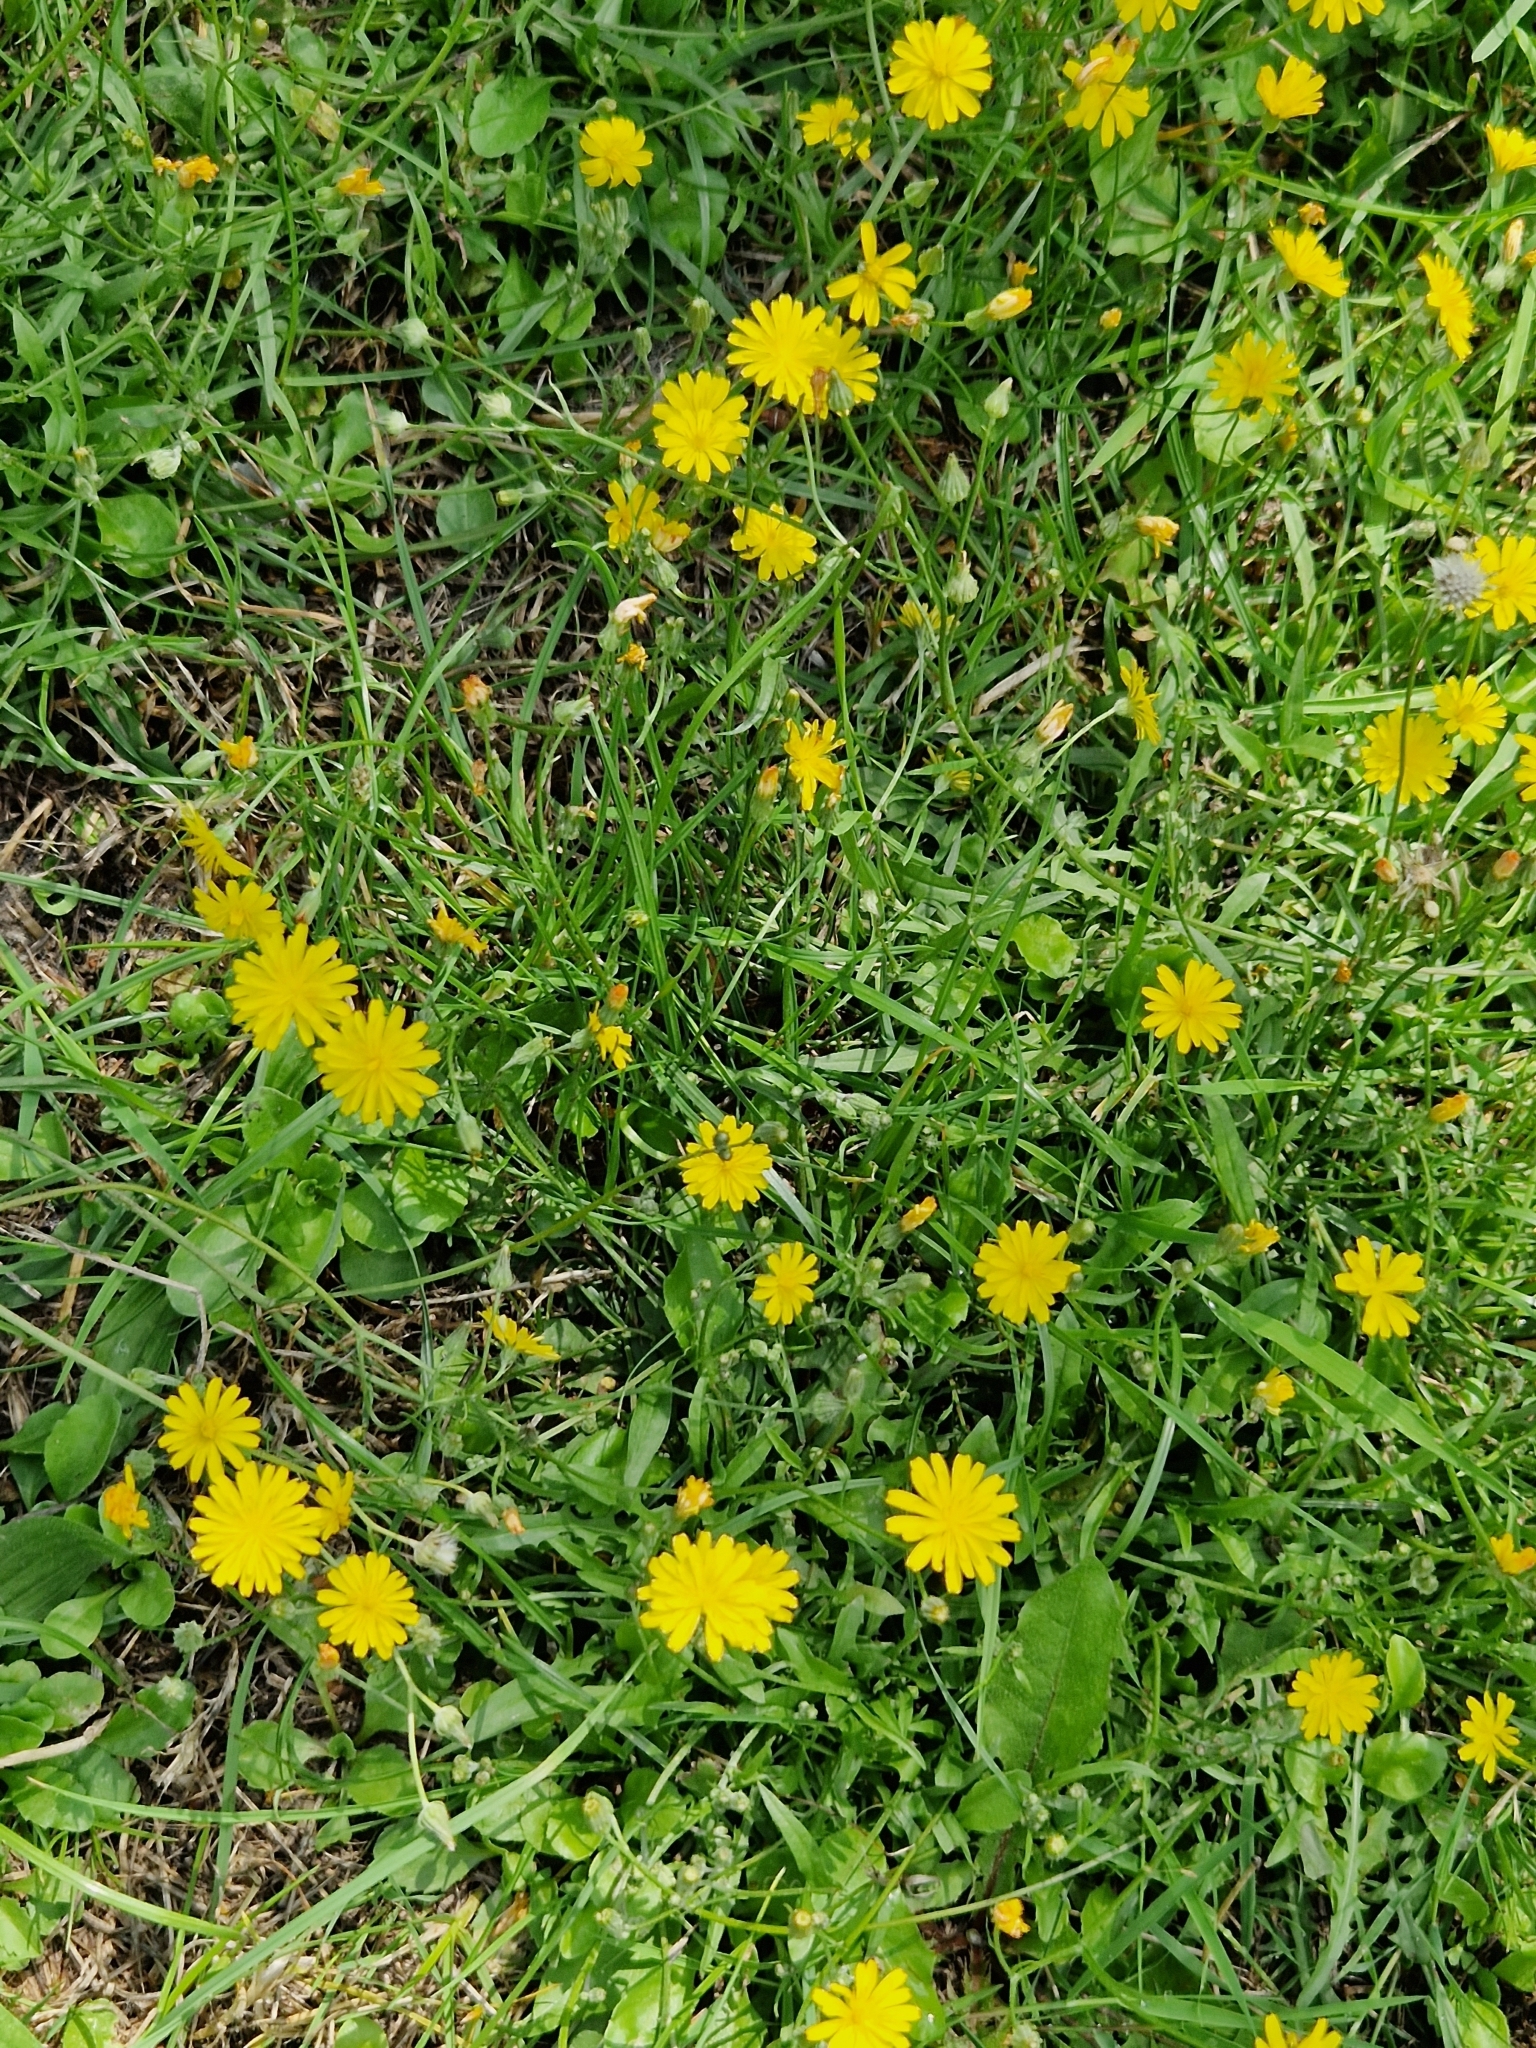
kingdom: Plantae
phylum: Tracheophyta
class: Magnoliopsida
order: Asterales
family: Asteraceae
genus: Crepis
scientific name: Crepis capillaris
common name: Smooth hawksbeard
